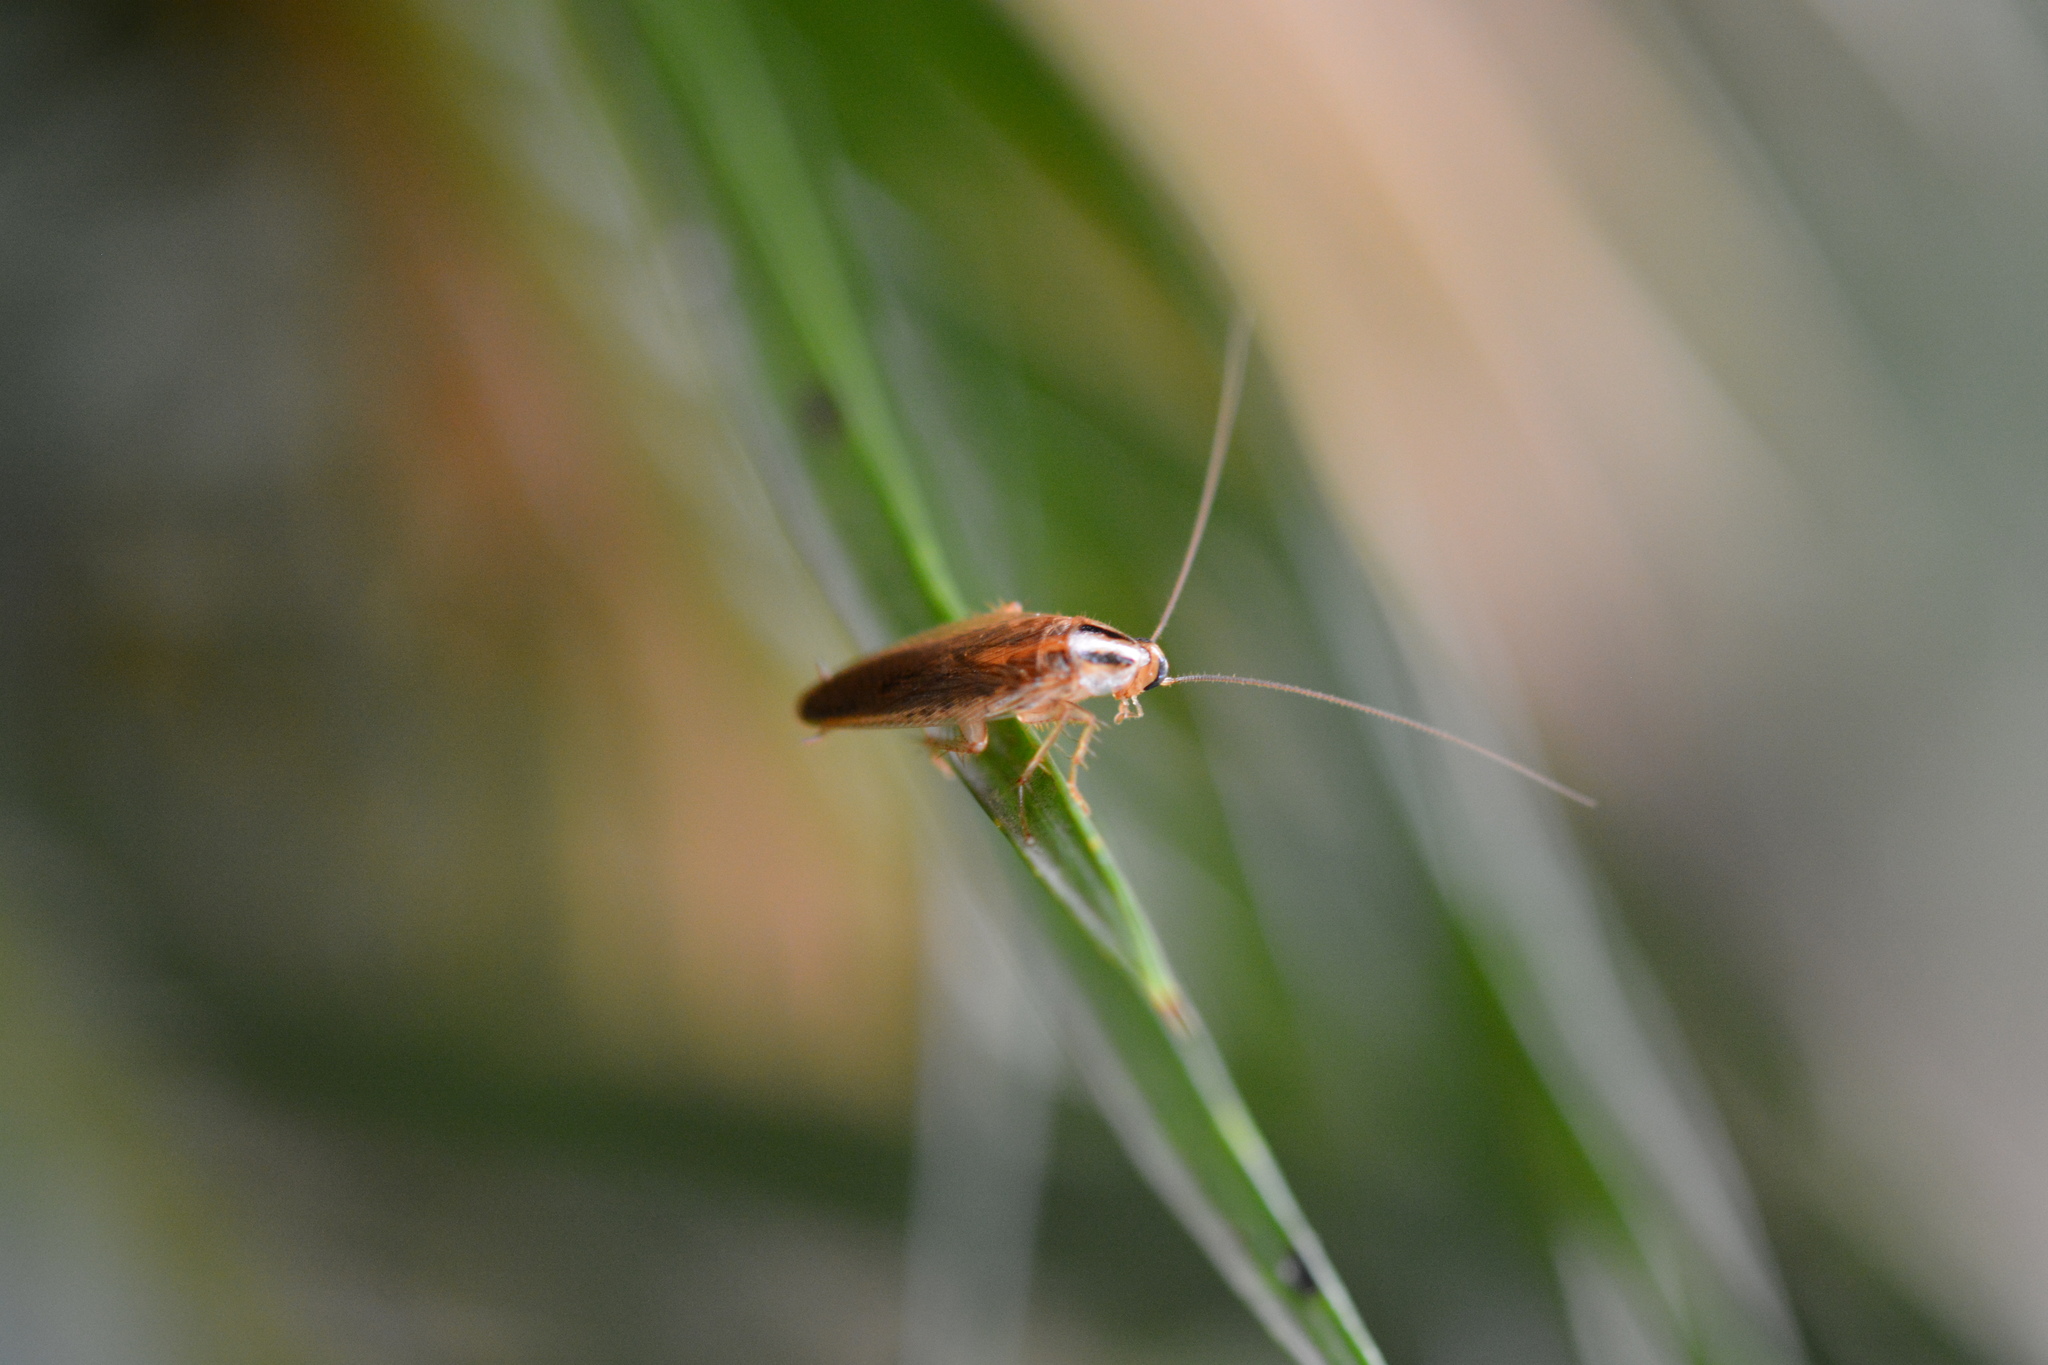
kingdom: Animalia
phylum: Arthropoda
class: Insecta
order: Blattodea
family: Ectobiidae
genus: Blattella
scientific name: Blattella asahinai
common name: Asian cockroach
